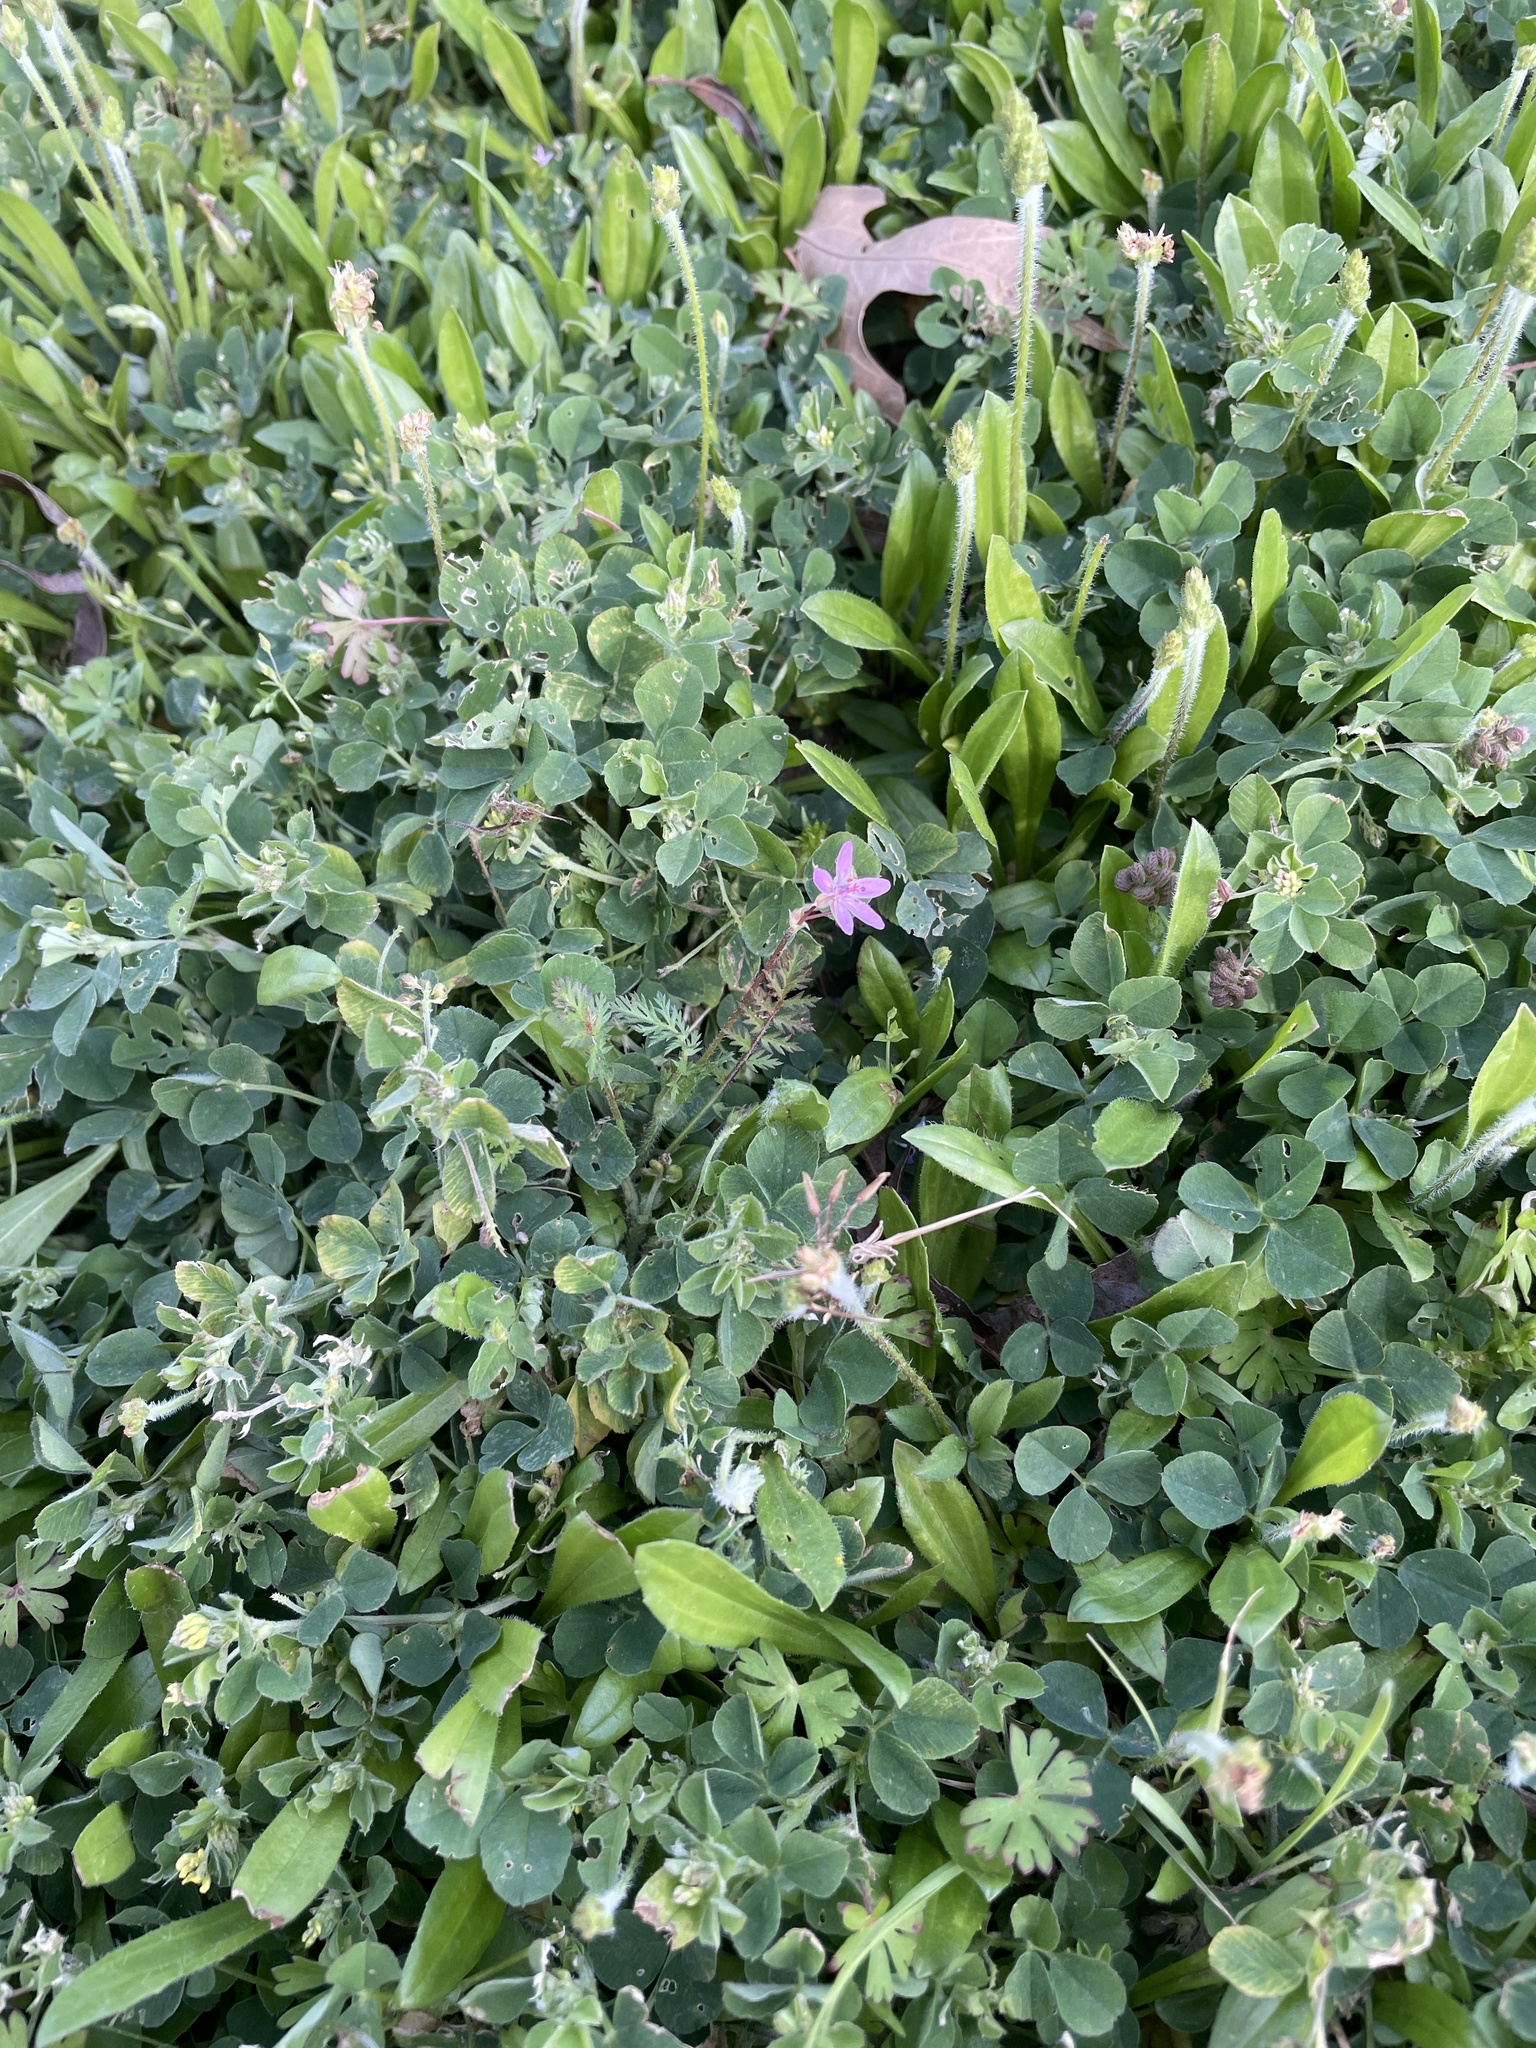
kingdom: Plantae
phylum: Tracheophyta
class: Magnoliopsida
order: Geraniales
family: Geraniaceae
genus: Erodium
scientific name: Erodium cicutarium
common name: Common stork's-bill
